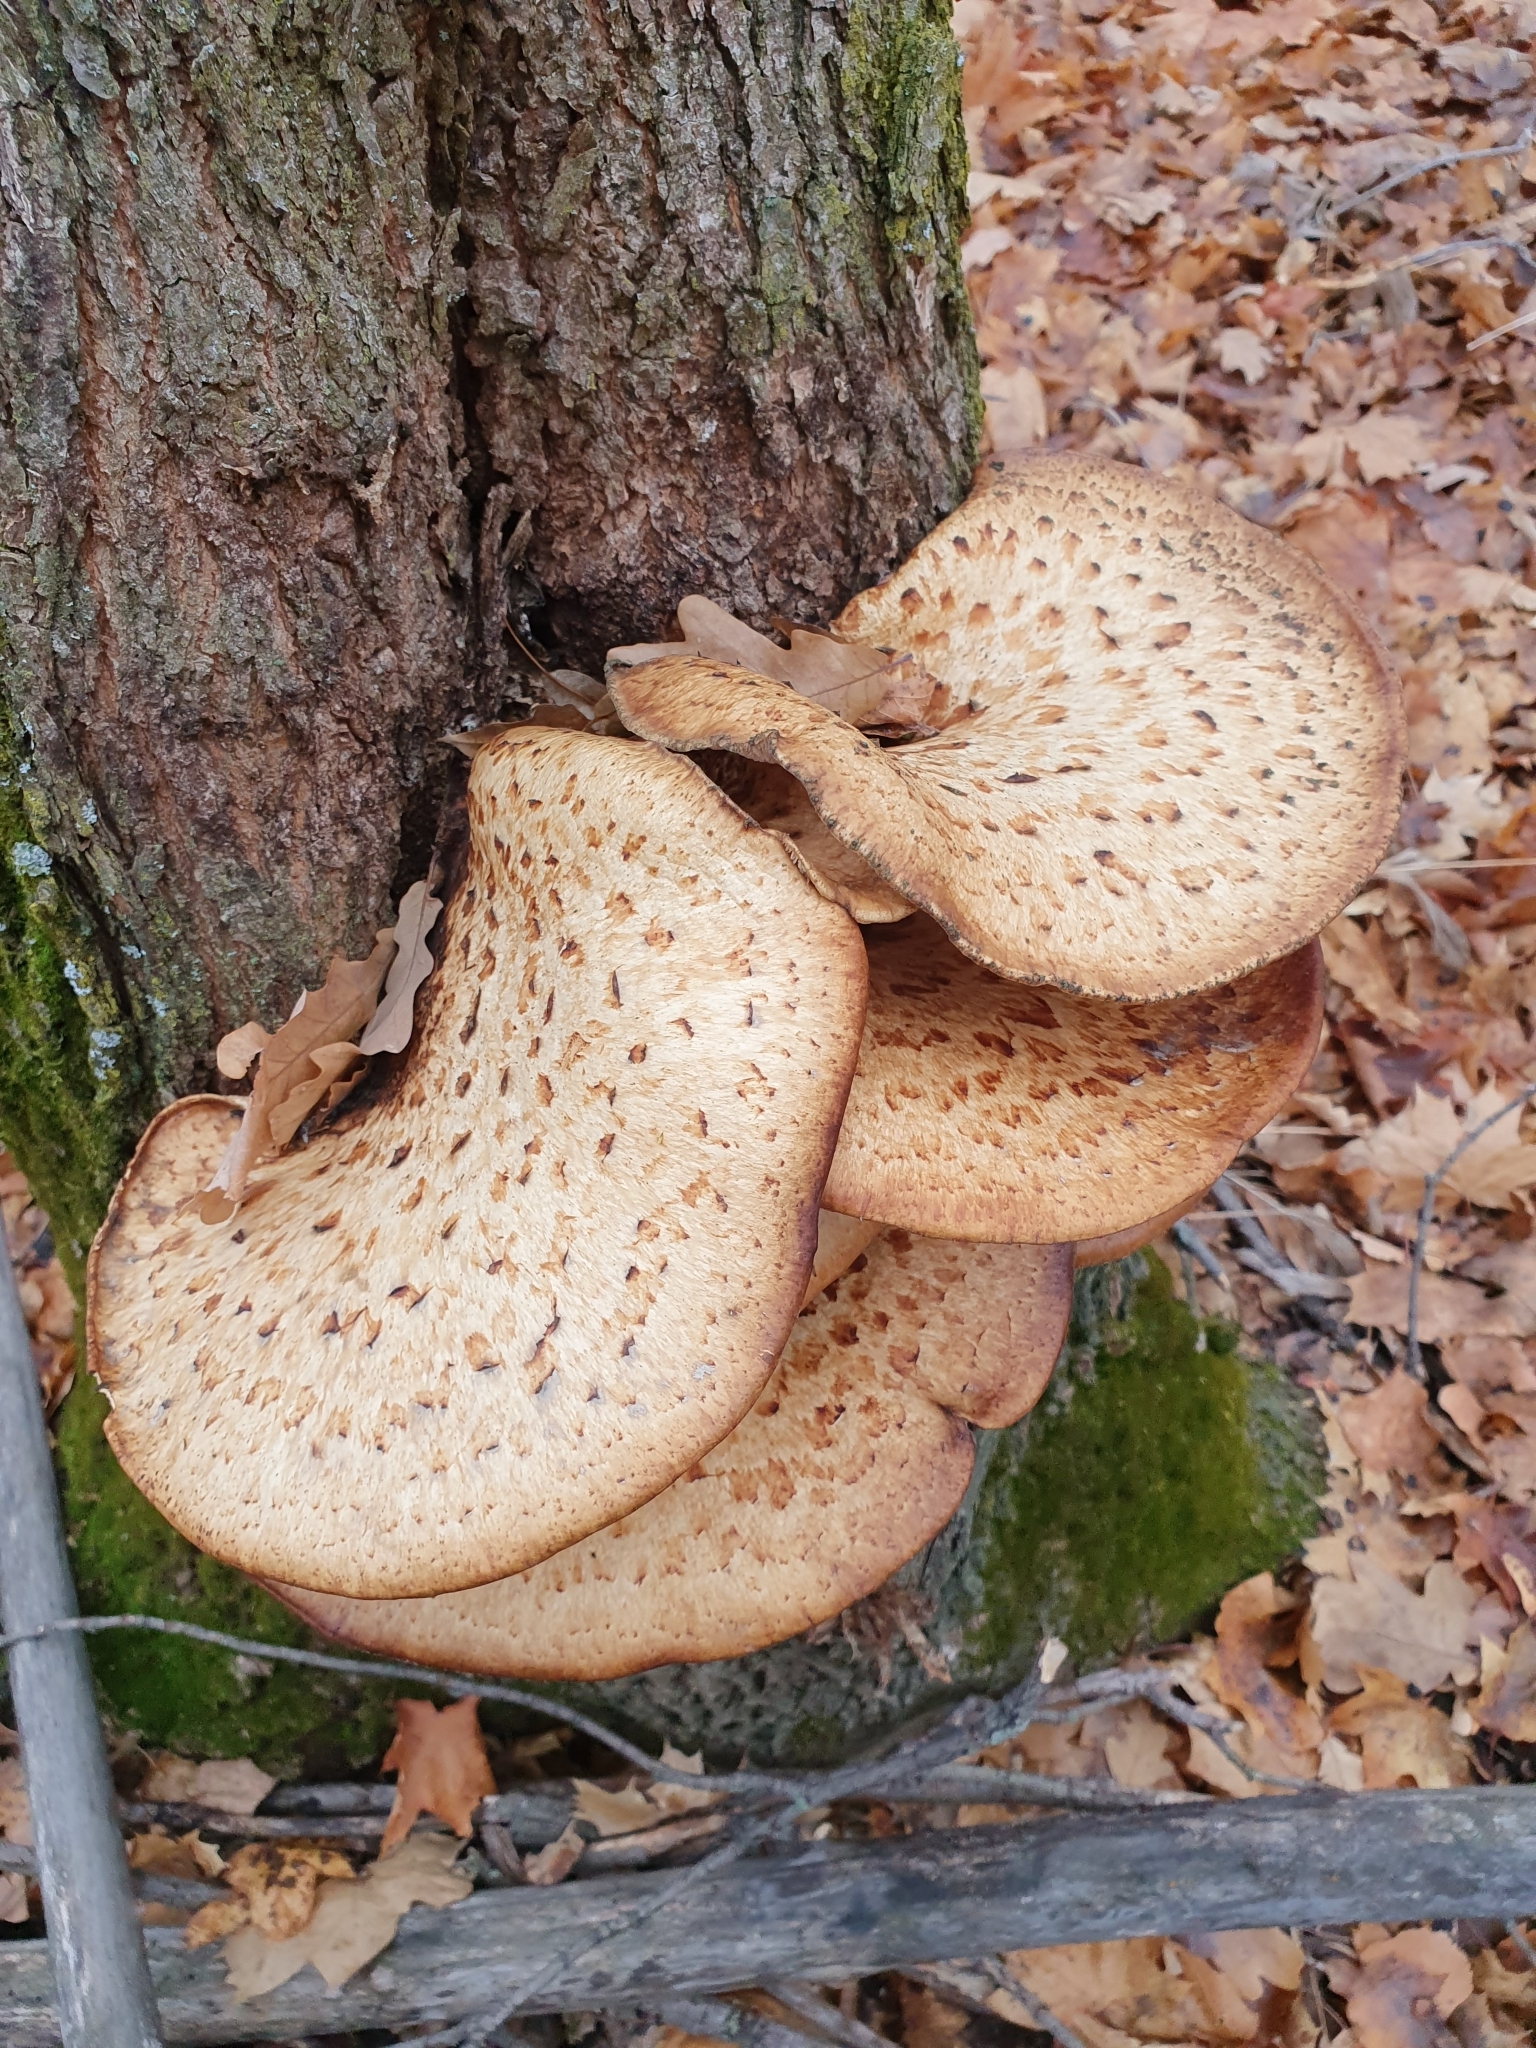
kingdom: Fungi
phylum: Basidiomycota
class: Agaricomycetes
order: Polyporales
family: Polyporaceae
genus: Cerioporus
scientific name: Cerioporus squamosus
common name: Dryad's saddle
